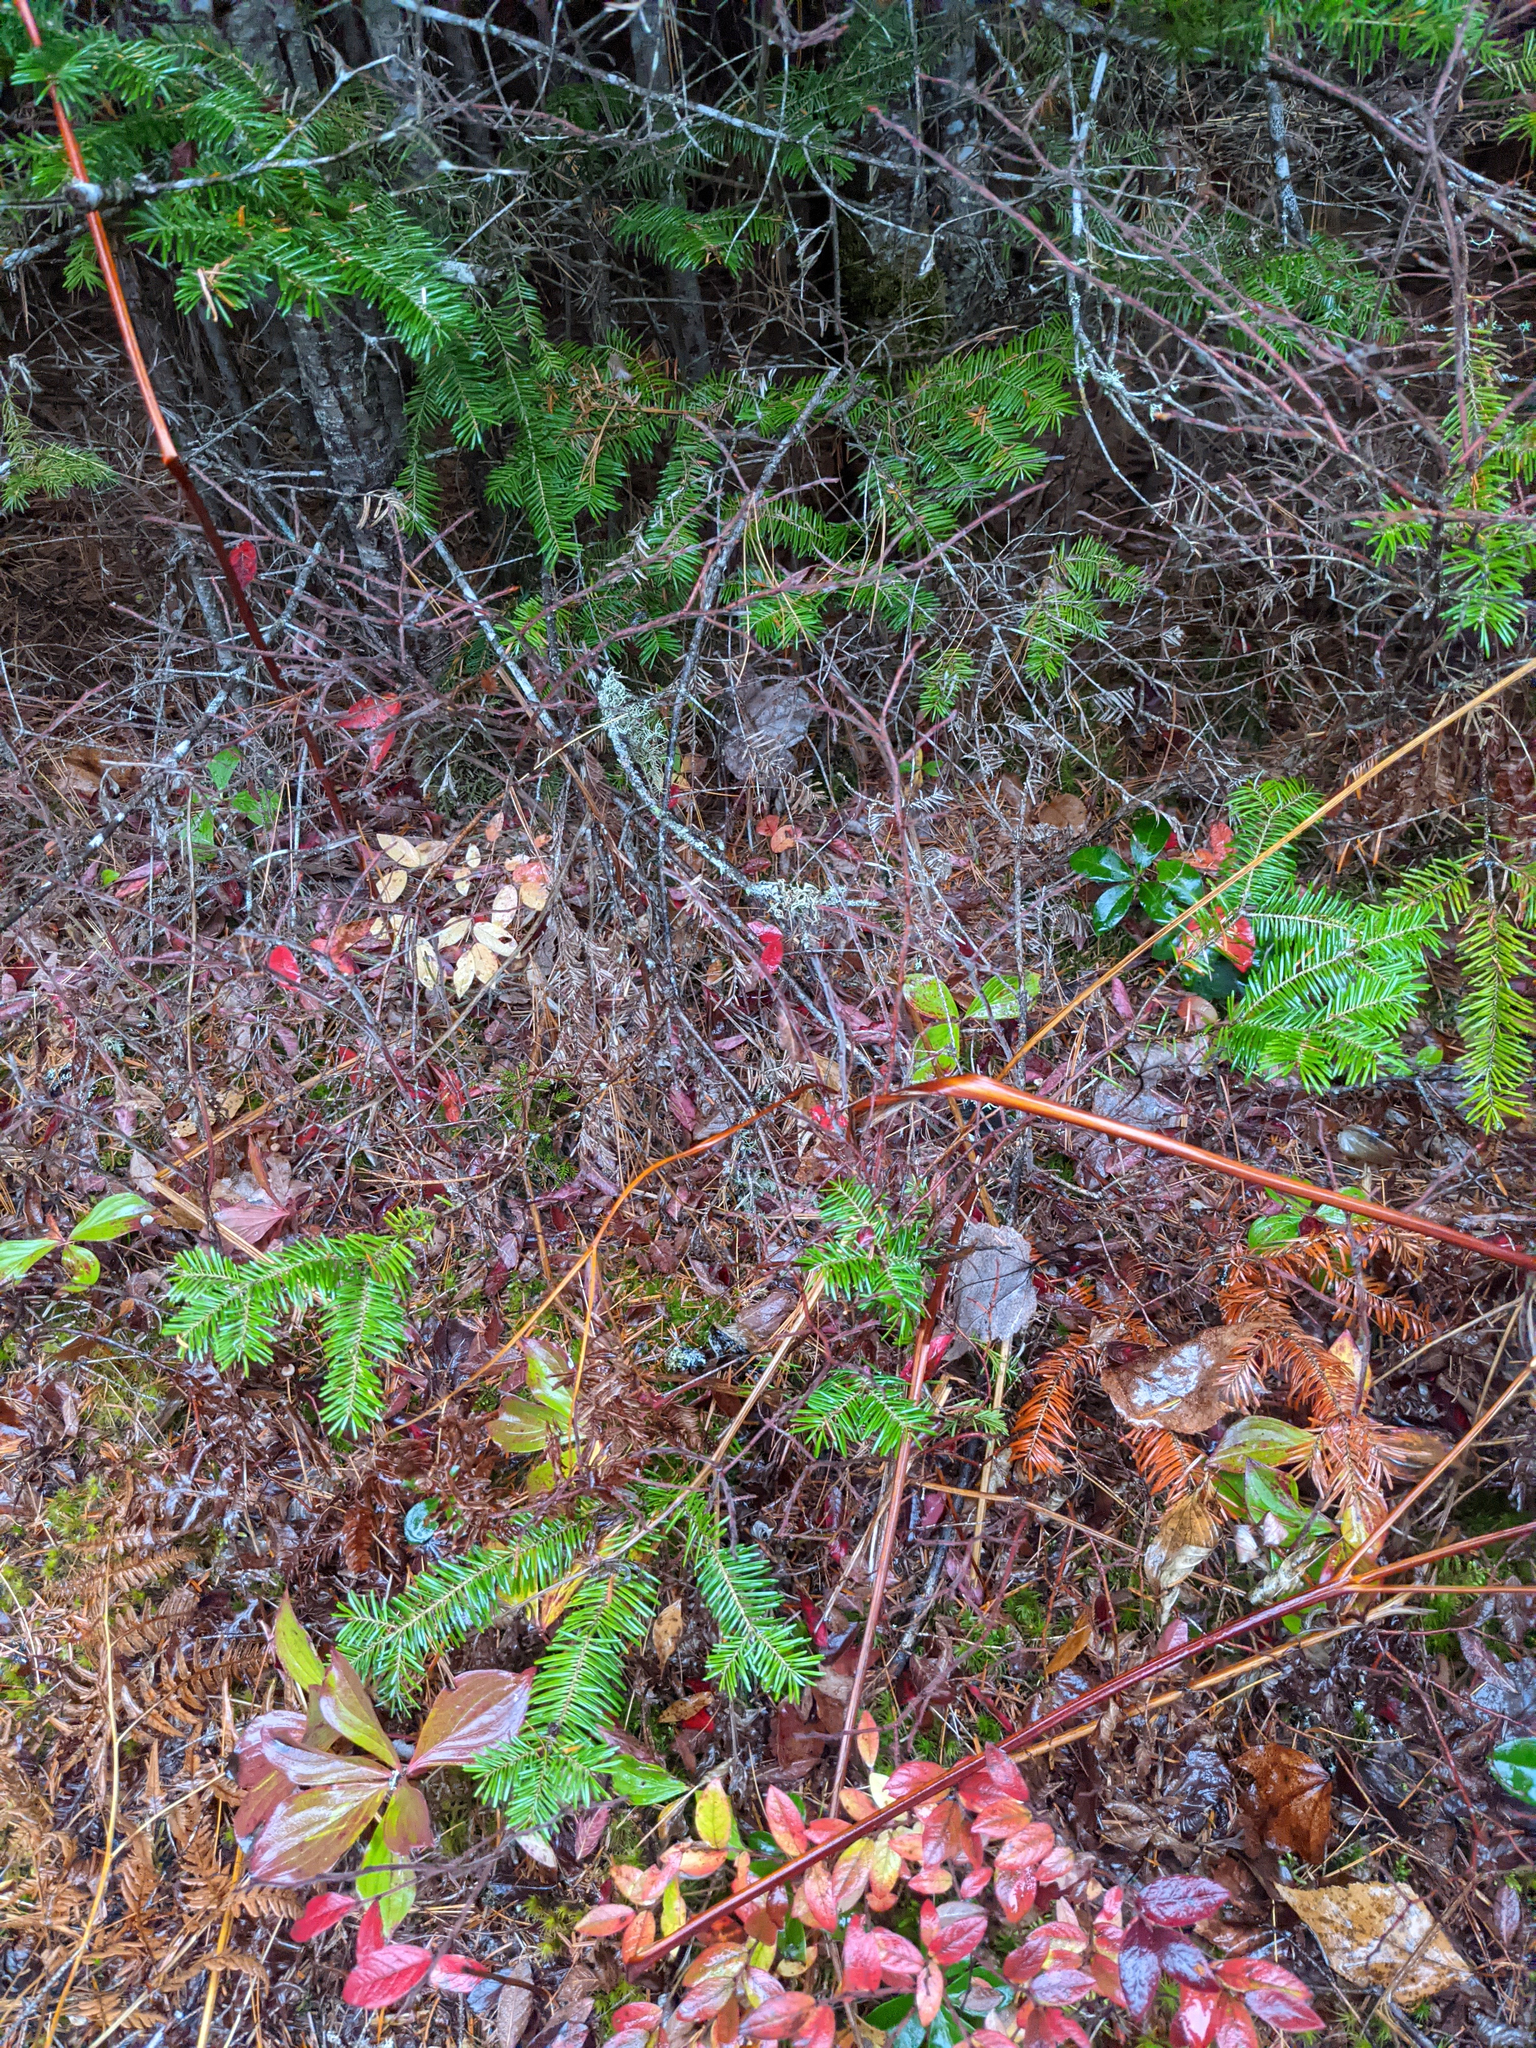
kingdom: Plantae
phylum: Tracheophyta
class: Pinopsida
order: Pinales
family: Pinaceae
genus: Abies
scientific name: Abies balsamea
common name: Balsam fir
